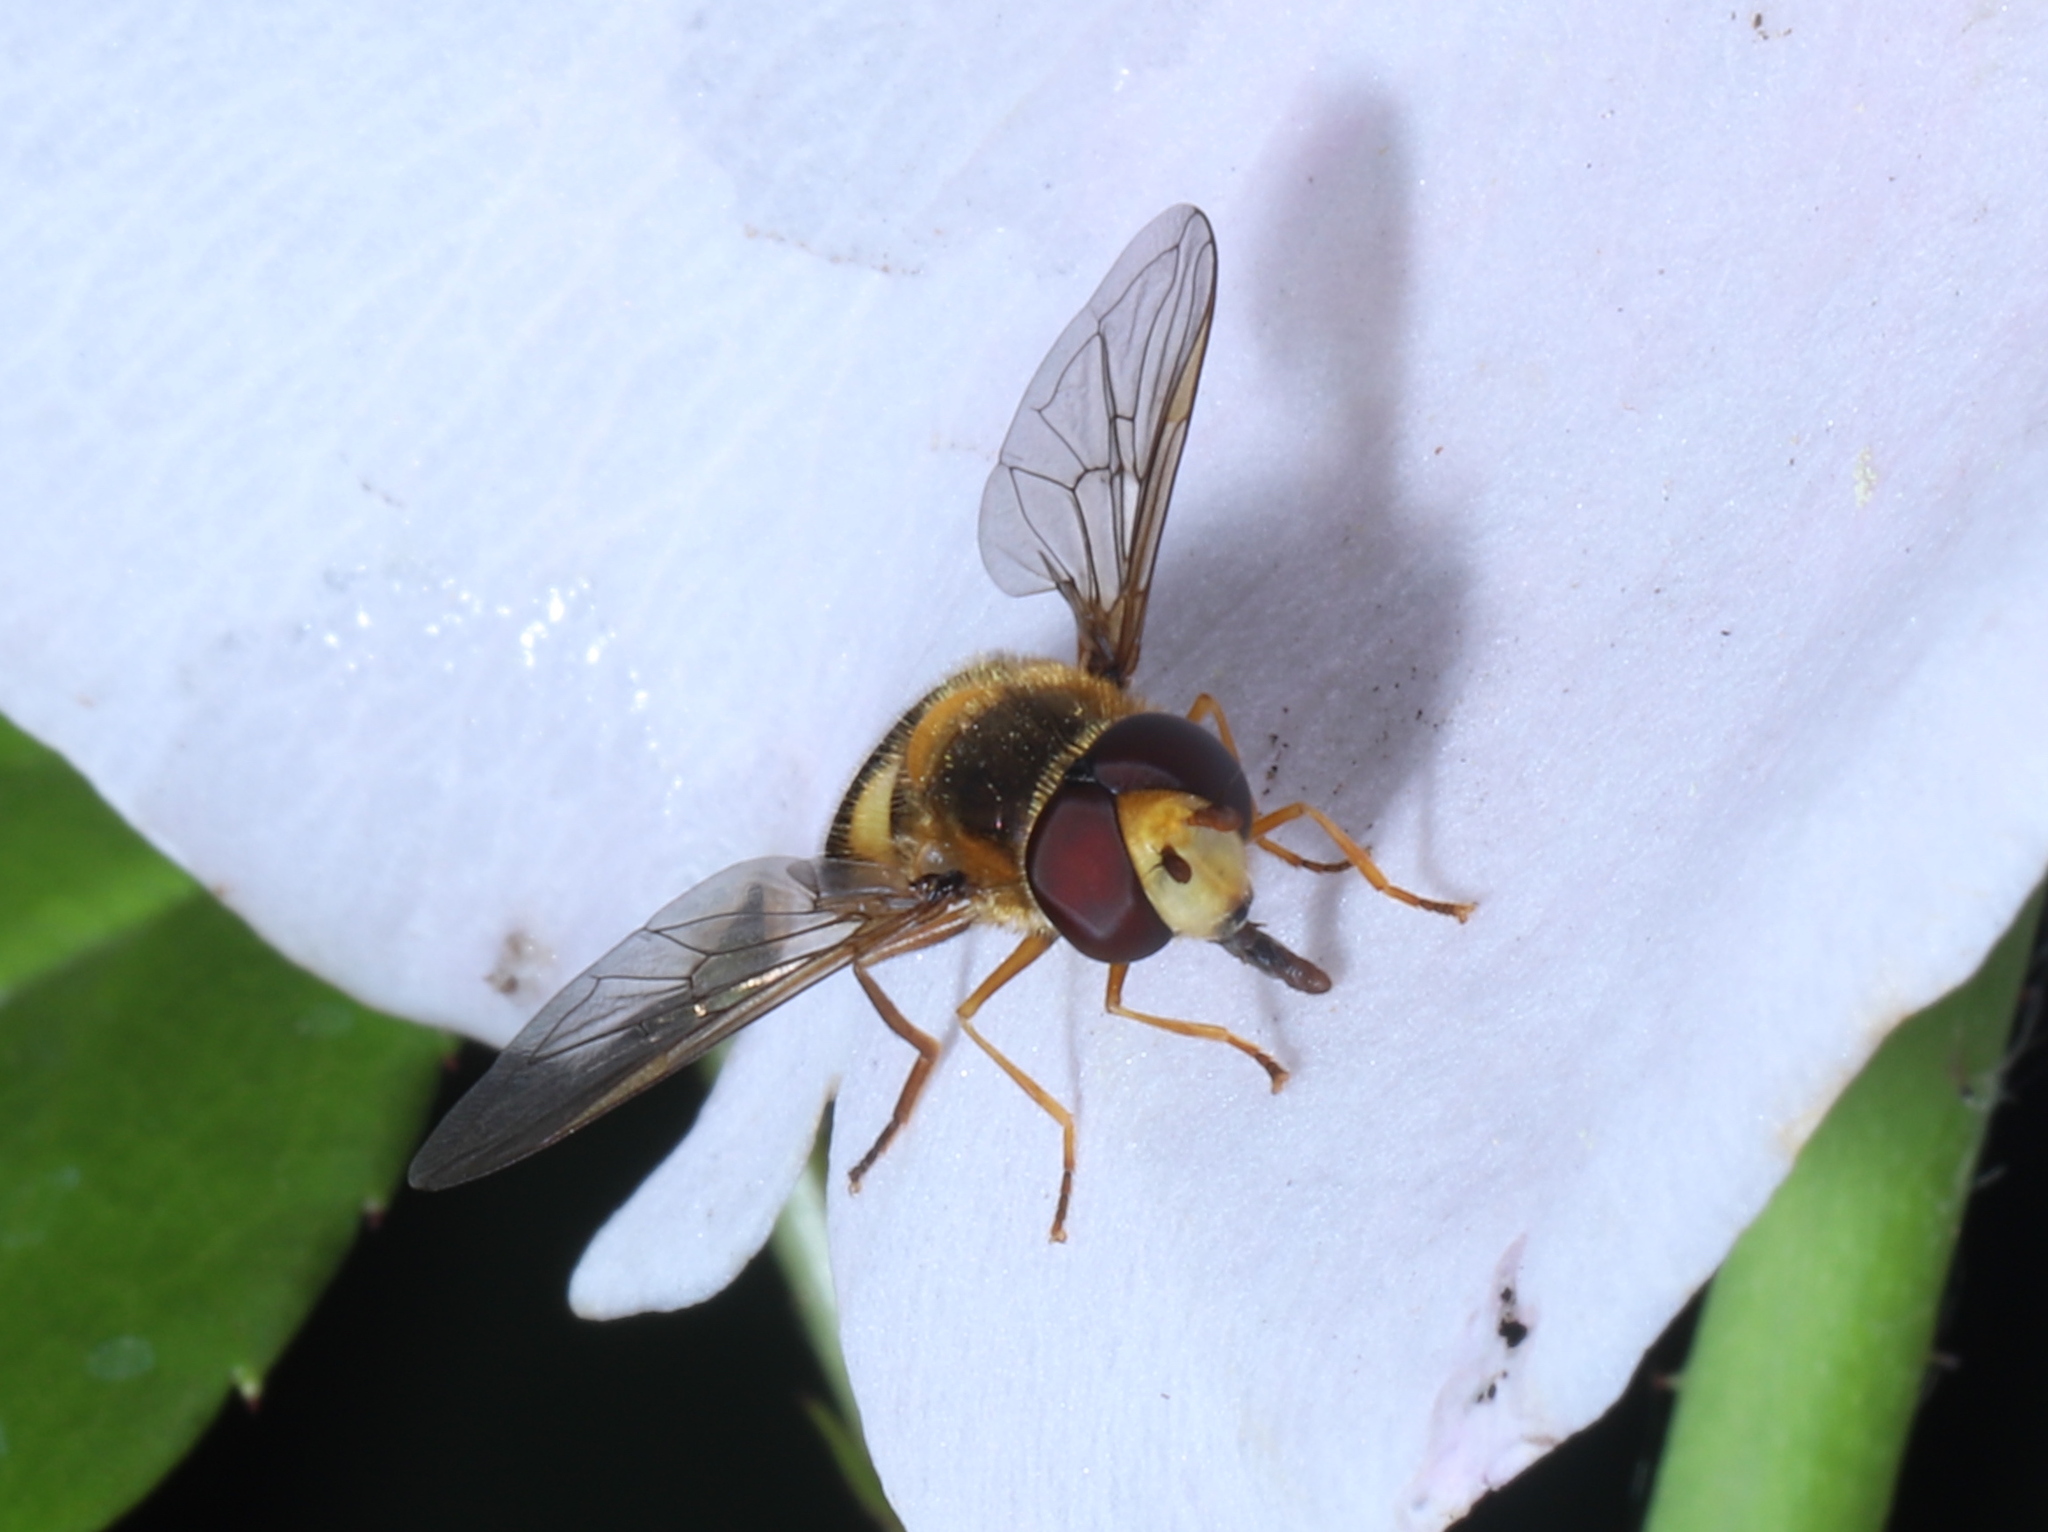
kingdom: Animalia
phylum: Arthropoda
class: Insecta
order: Diptera
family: Syrphidae
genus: Eupeodes
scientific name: Eupeodes latifasciatus
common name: Variable aphideater
